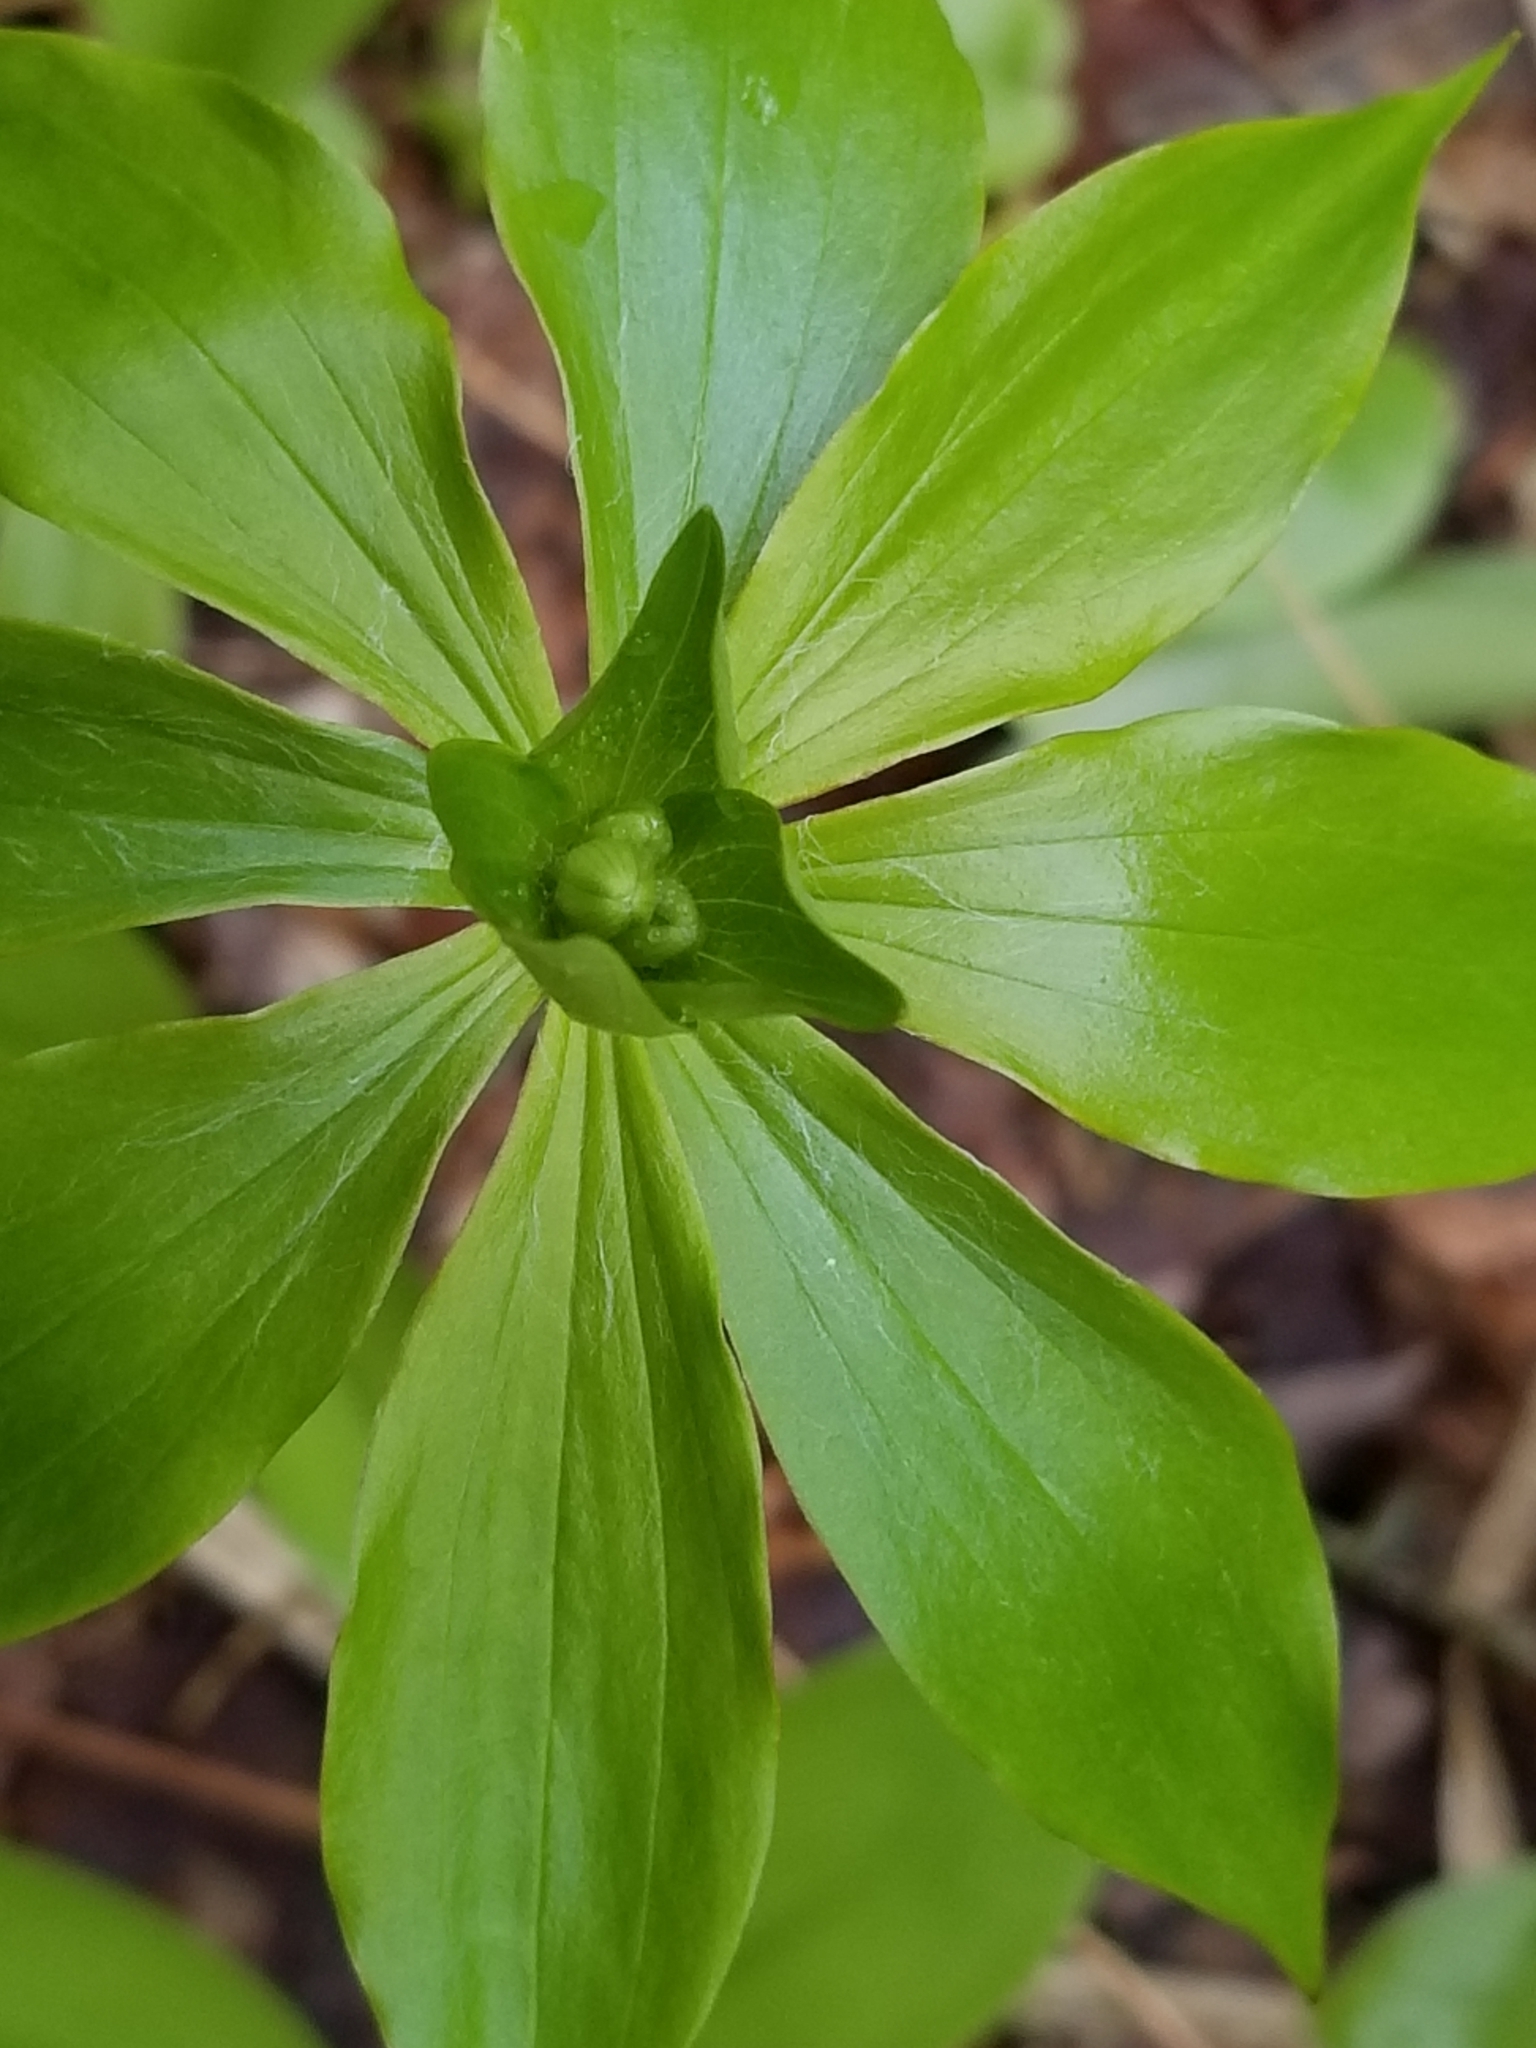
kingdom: Plantae
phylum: Tracheophyta
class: Liliopsida
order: Liliales
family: Liliaceae
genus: Medeola
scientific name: Medeola virginiana
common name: Indian cucumber-root
